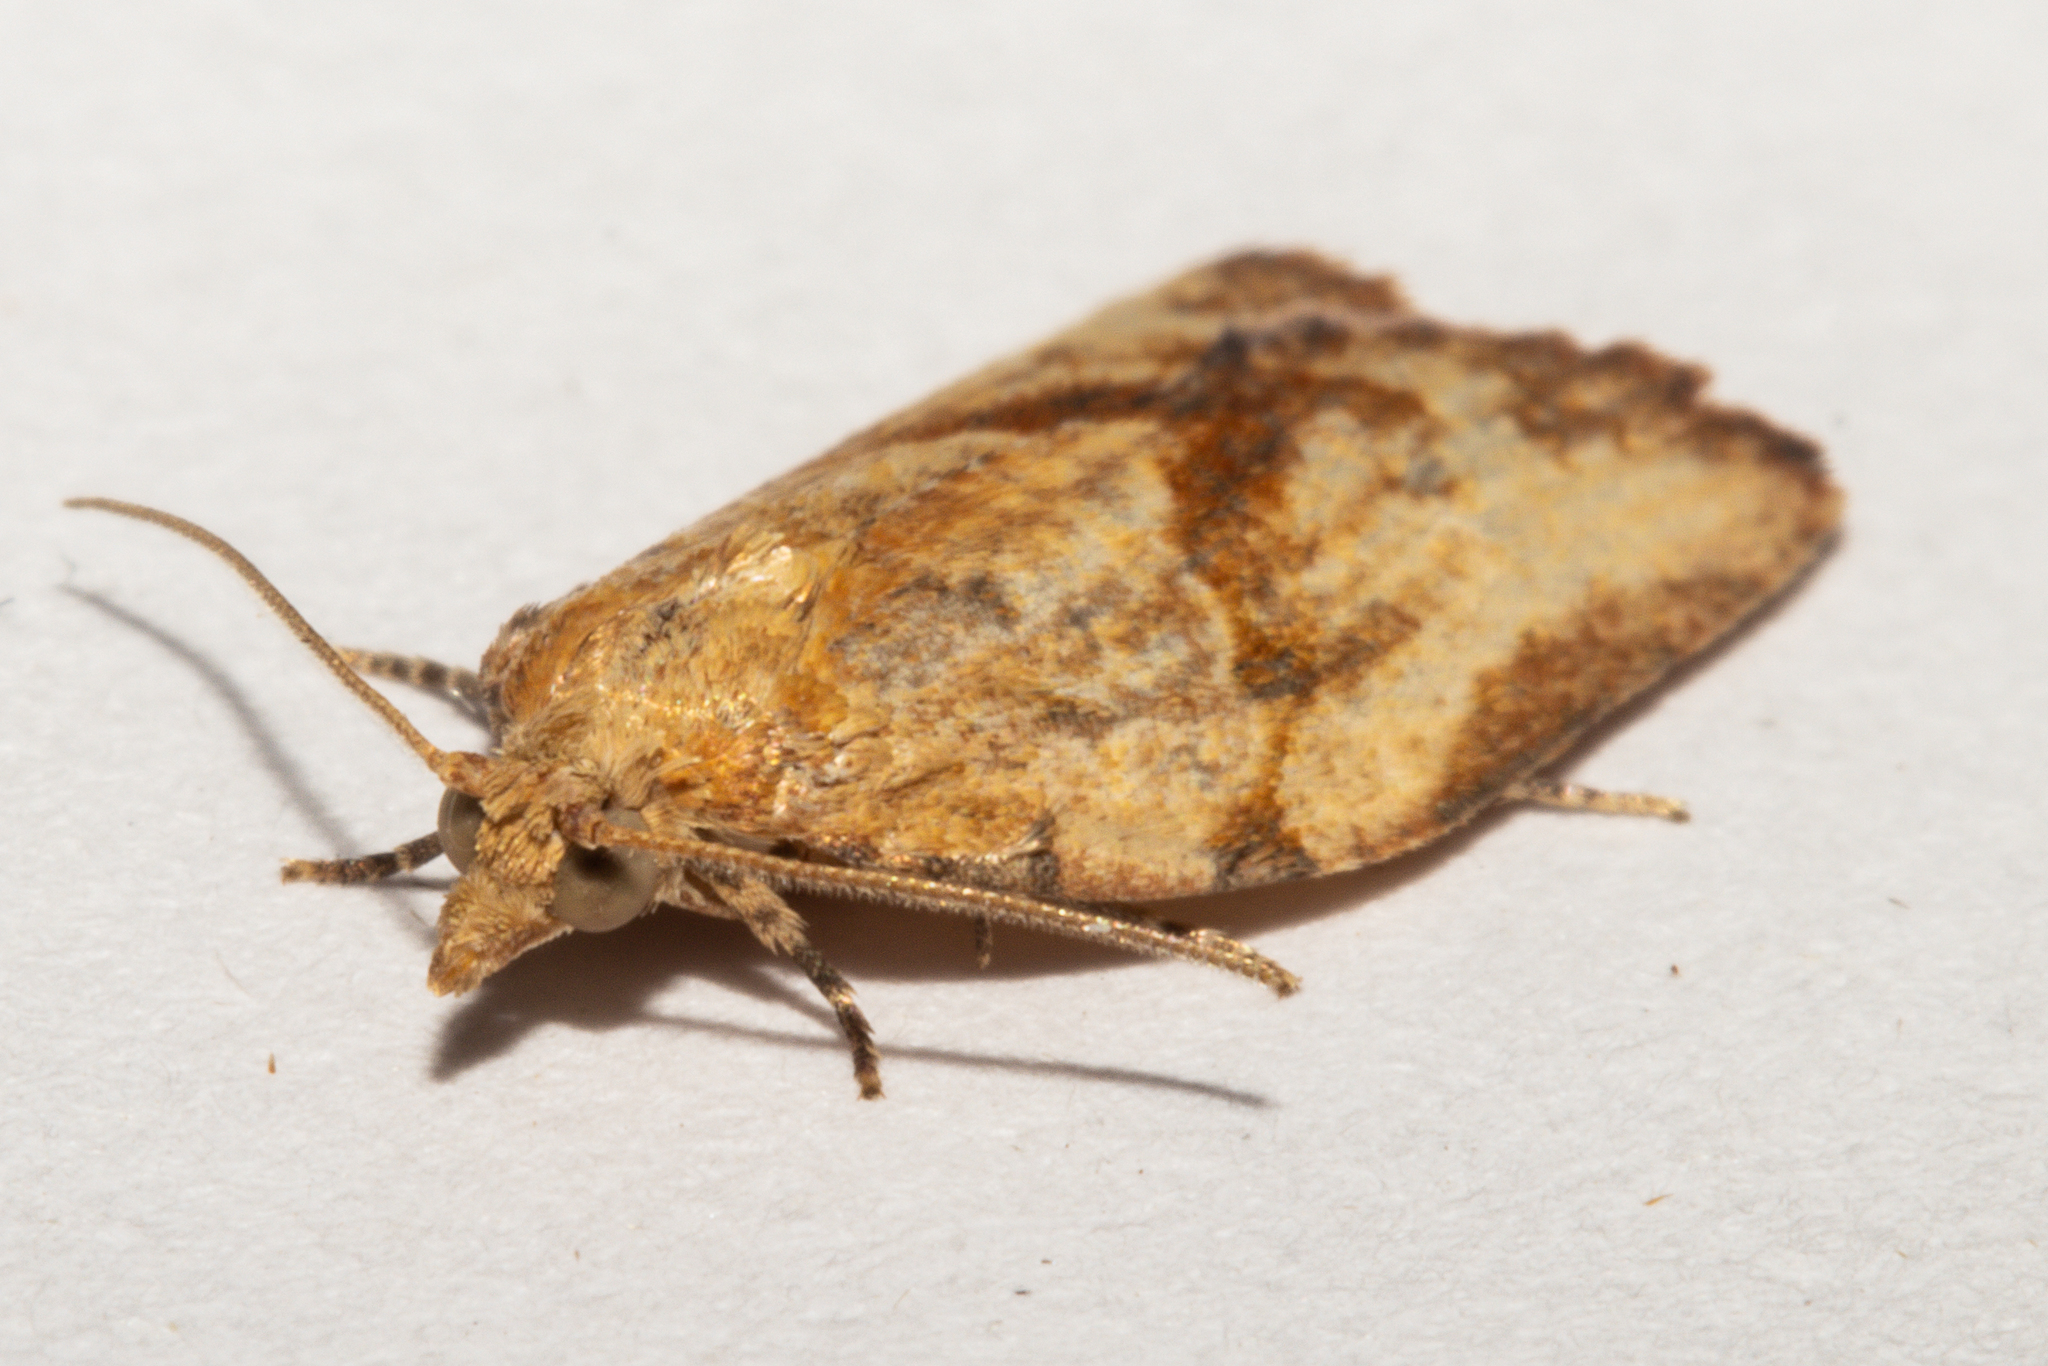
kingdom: Animalia
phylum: Arthropoda
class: Insecta
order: Lepidoptera
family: Tortricidae
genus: Epiphyas
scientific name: Epiphyas postvittana
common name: Light brown apple moth
